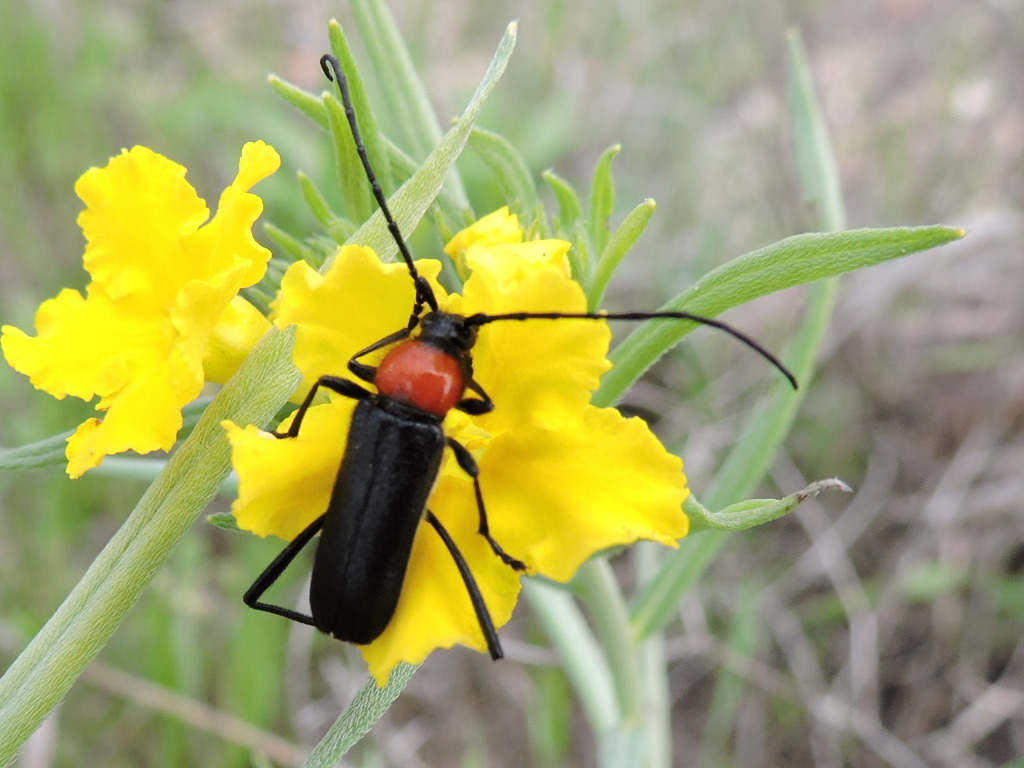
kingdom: Animalia
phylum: Arthropoda
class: Insecta
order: Coleoptera
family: Cerambycidae
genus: Batyle
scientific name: Batyle ignicollis
